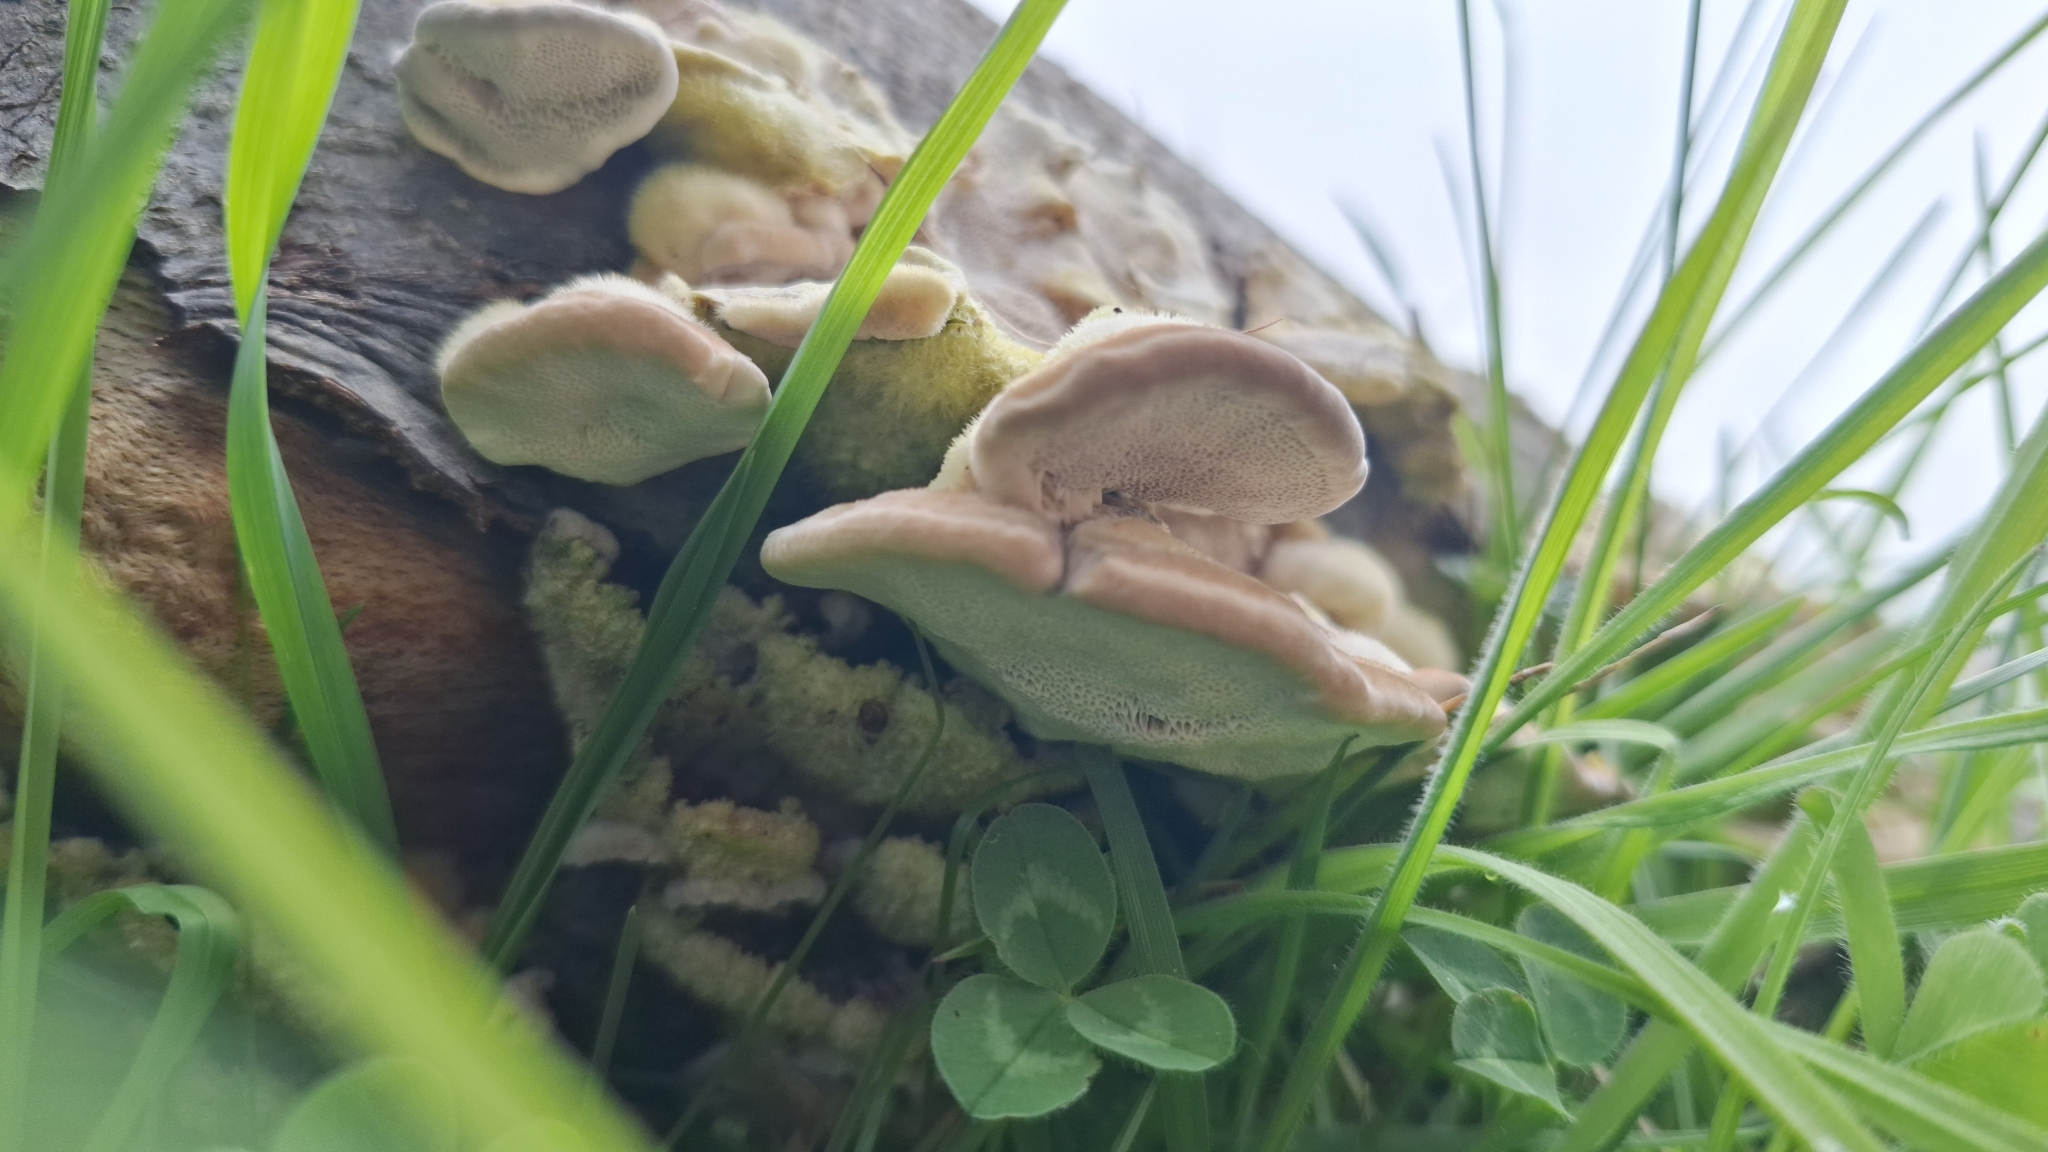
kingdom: Fungi
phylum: Basidiomycota
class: Agaricomycetes
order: Polyporales
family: Polyporaceae
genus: Trametes
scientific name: Trametes hirsuta
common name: Hairy bracket
